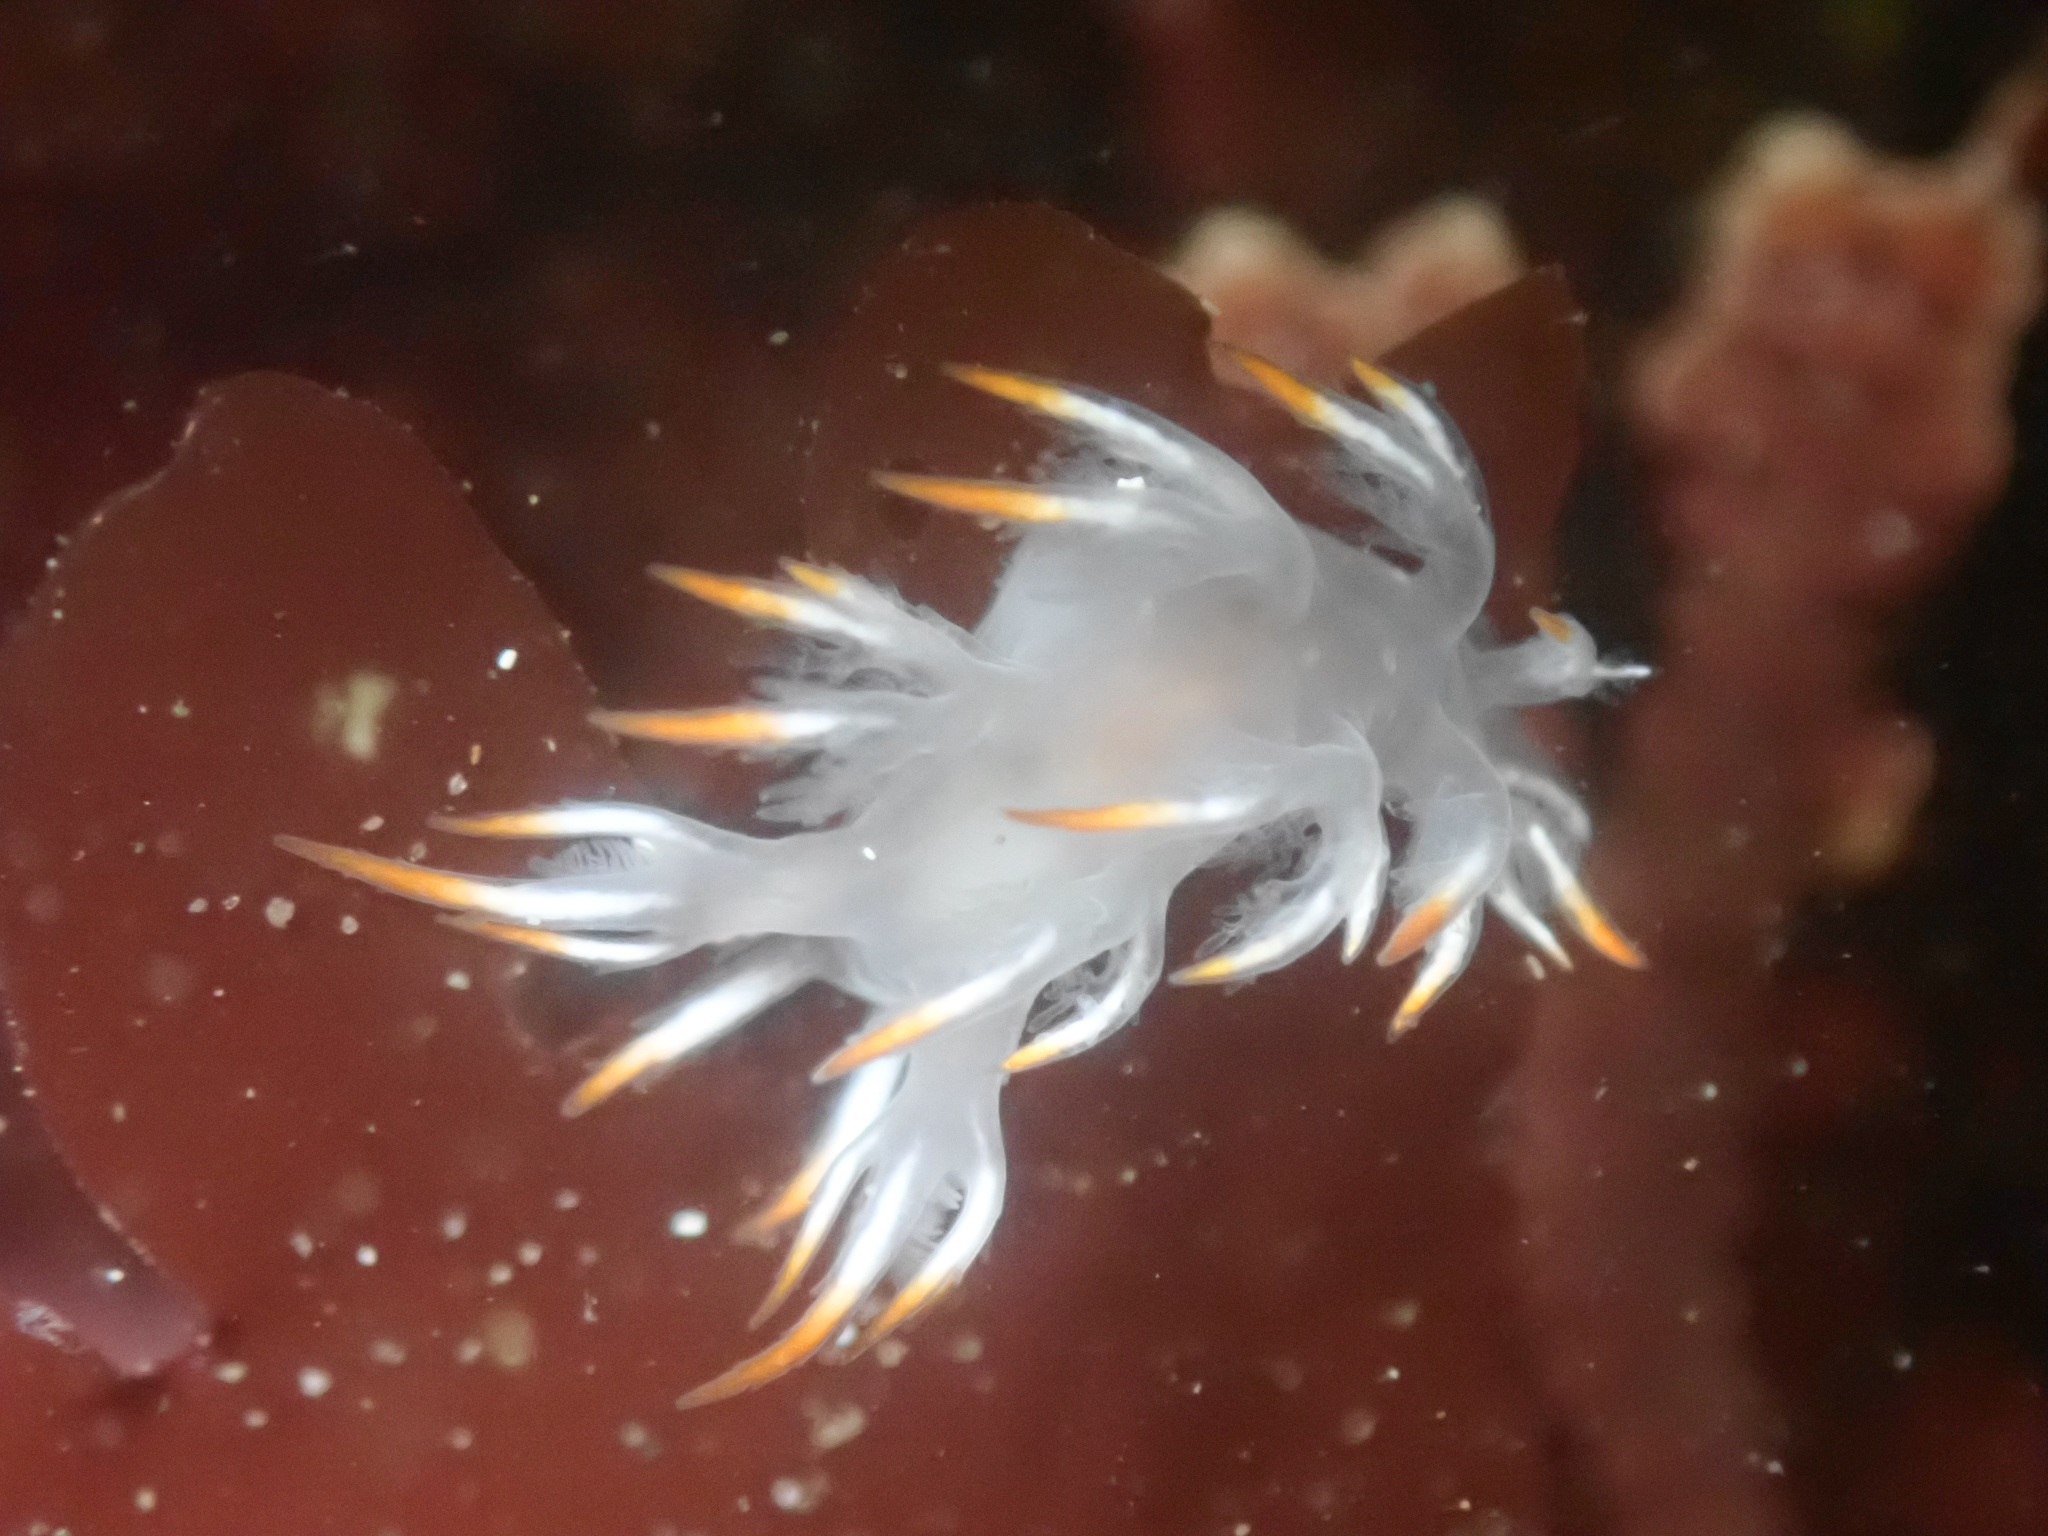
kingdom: Animalia
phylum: Mollusca
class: Gastropoda
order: Nudibranchia
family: Dendronotidae
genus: Dendronotus
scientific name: Dendronotus albus
